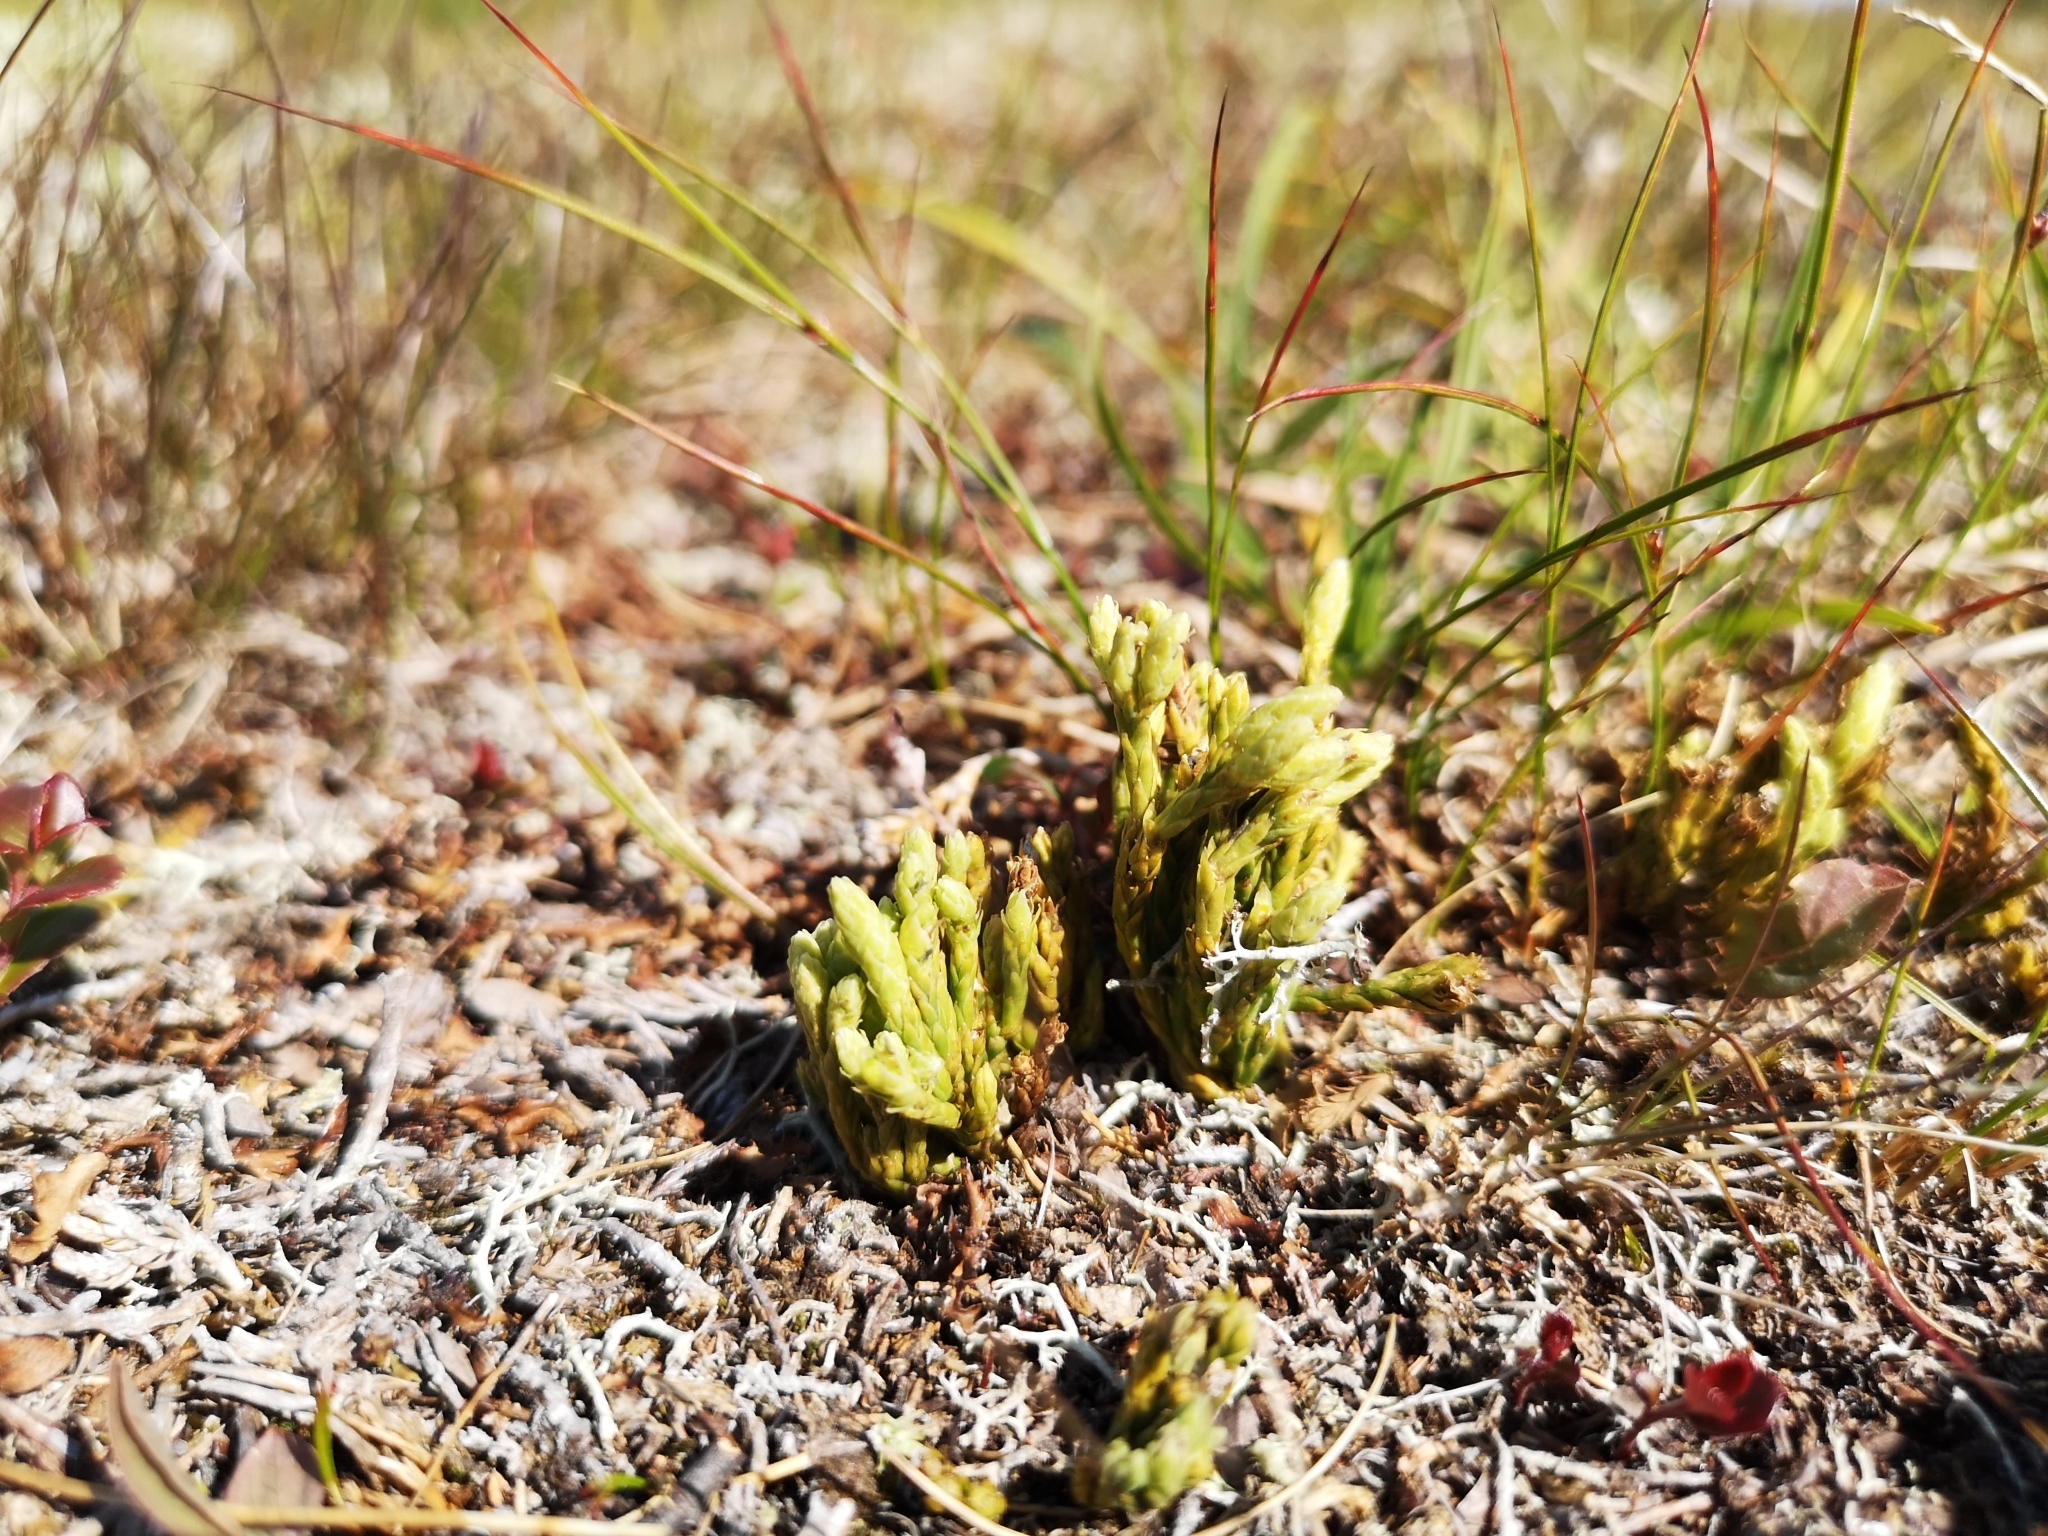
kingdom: Plantae
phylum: Tracheophyta
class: Lycopodiopsida
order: Lycopodiales
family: Lycopodiaceae
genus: Diphasiastrum
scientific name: Diphasiastrum alpinum
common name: Alpine clubmoss
